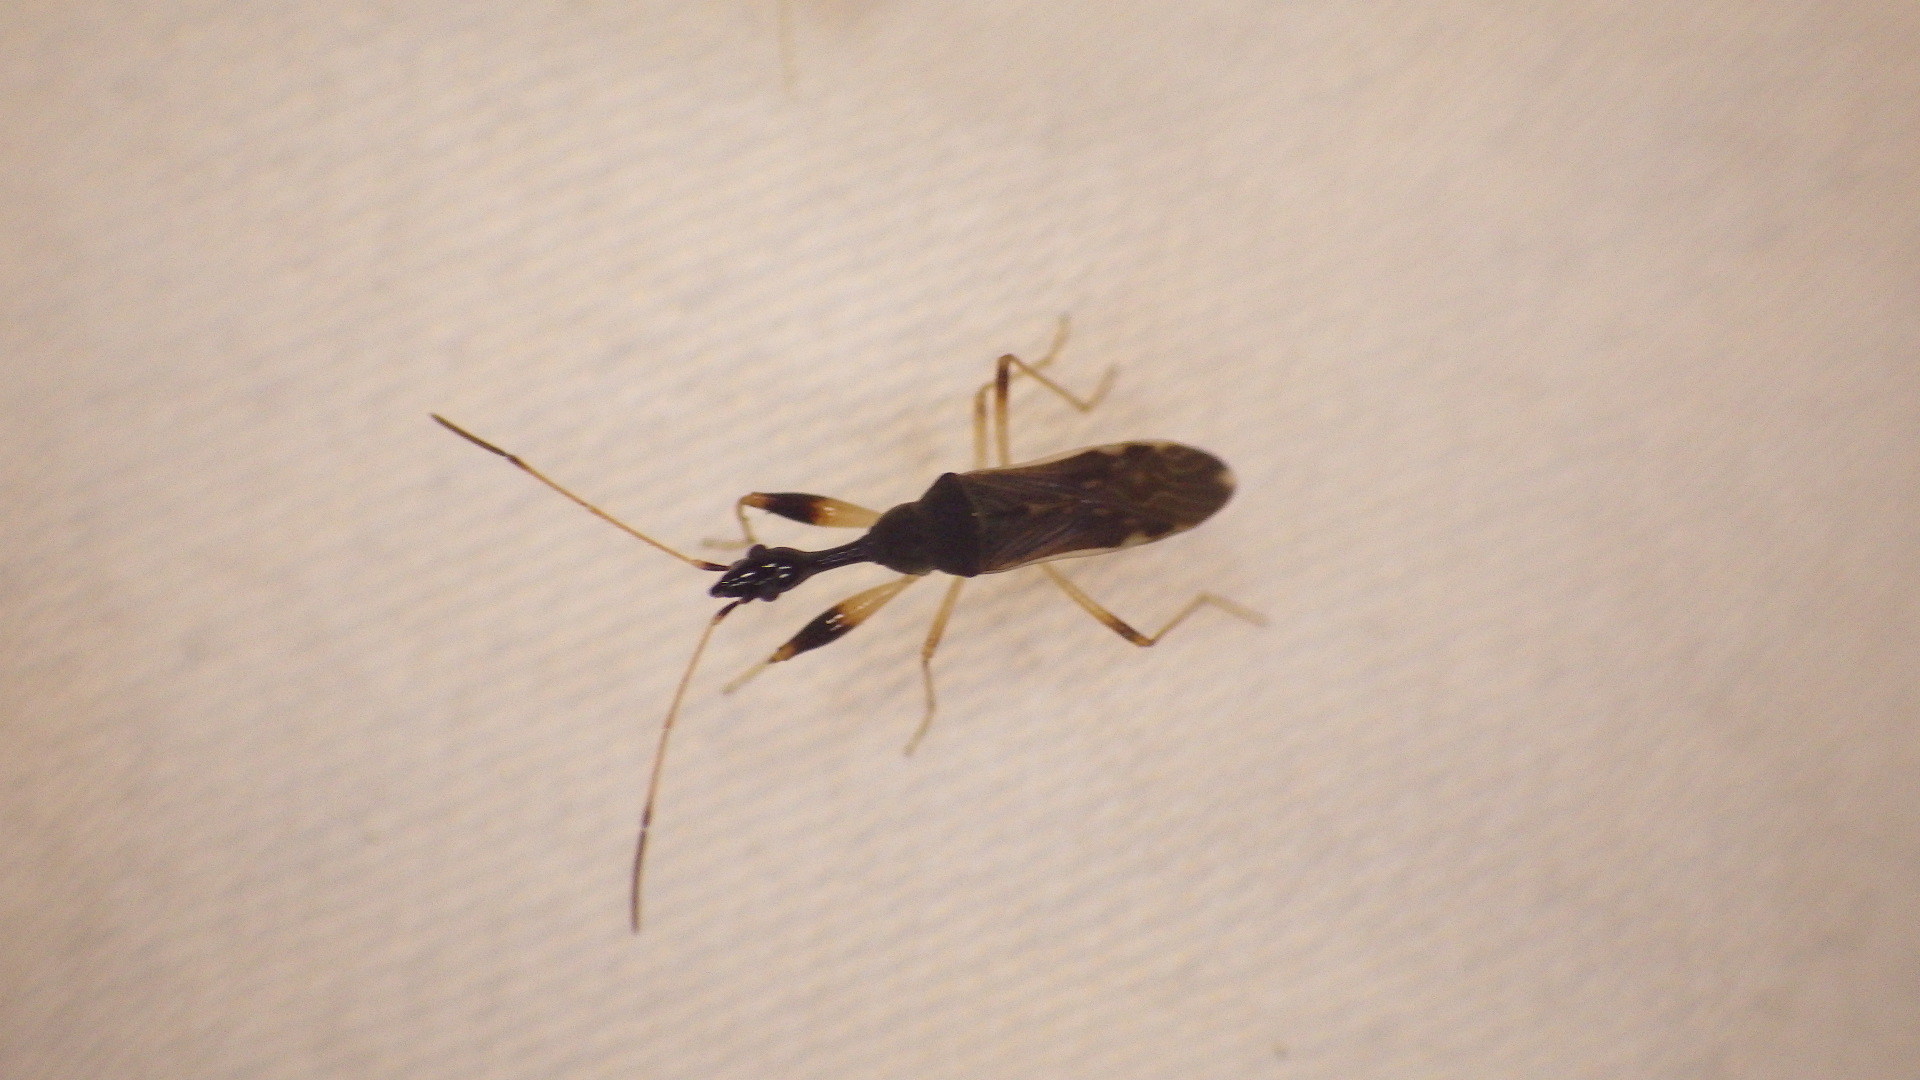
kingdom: Animalia
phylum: Arthropoda
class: Insecta
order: Hemiptera
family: Rhyparochromidae
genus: Myodocha
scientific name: Myodocha serripes
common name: Long-necked seed bug
